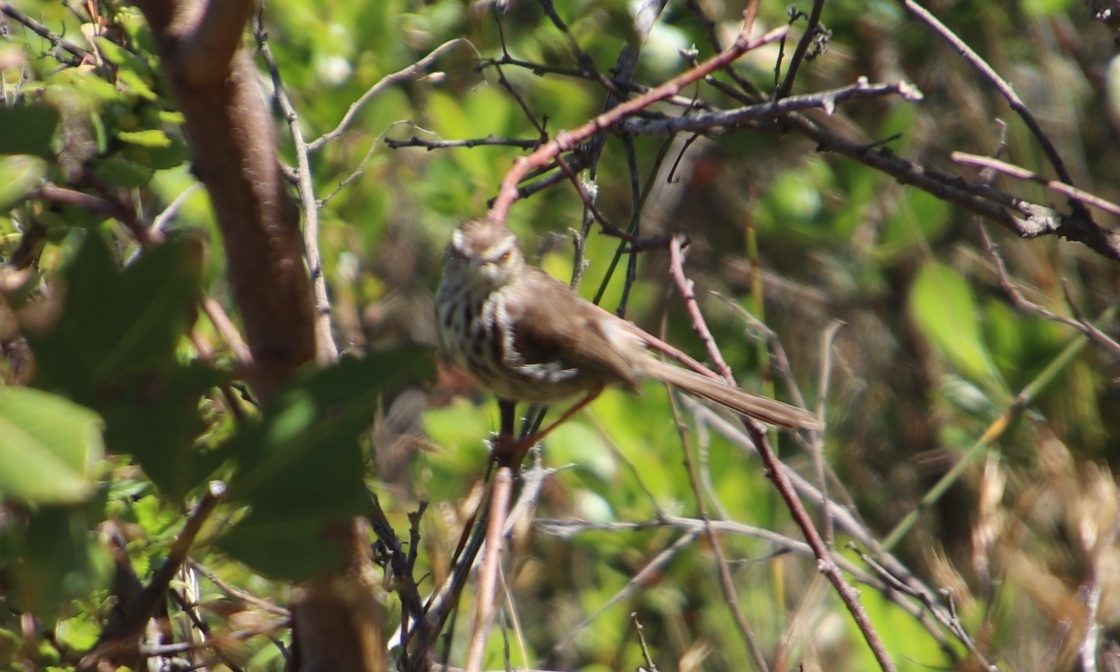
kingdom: Animalia
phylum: Chordata
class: Aves
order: Passeriformes
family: Cisticolidae
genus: Prinia
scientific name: Prinia maculosa
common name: Karoo prinia
